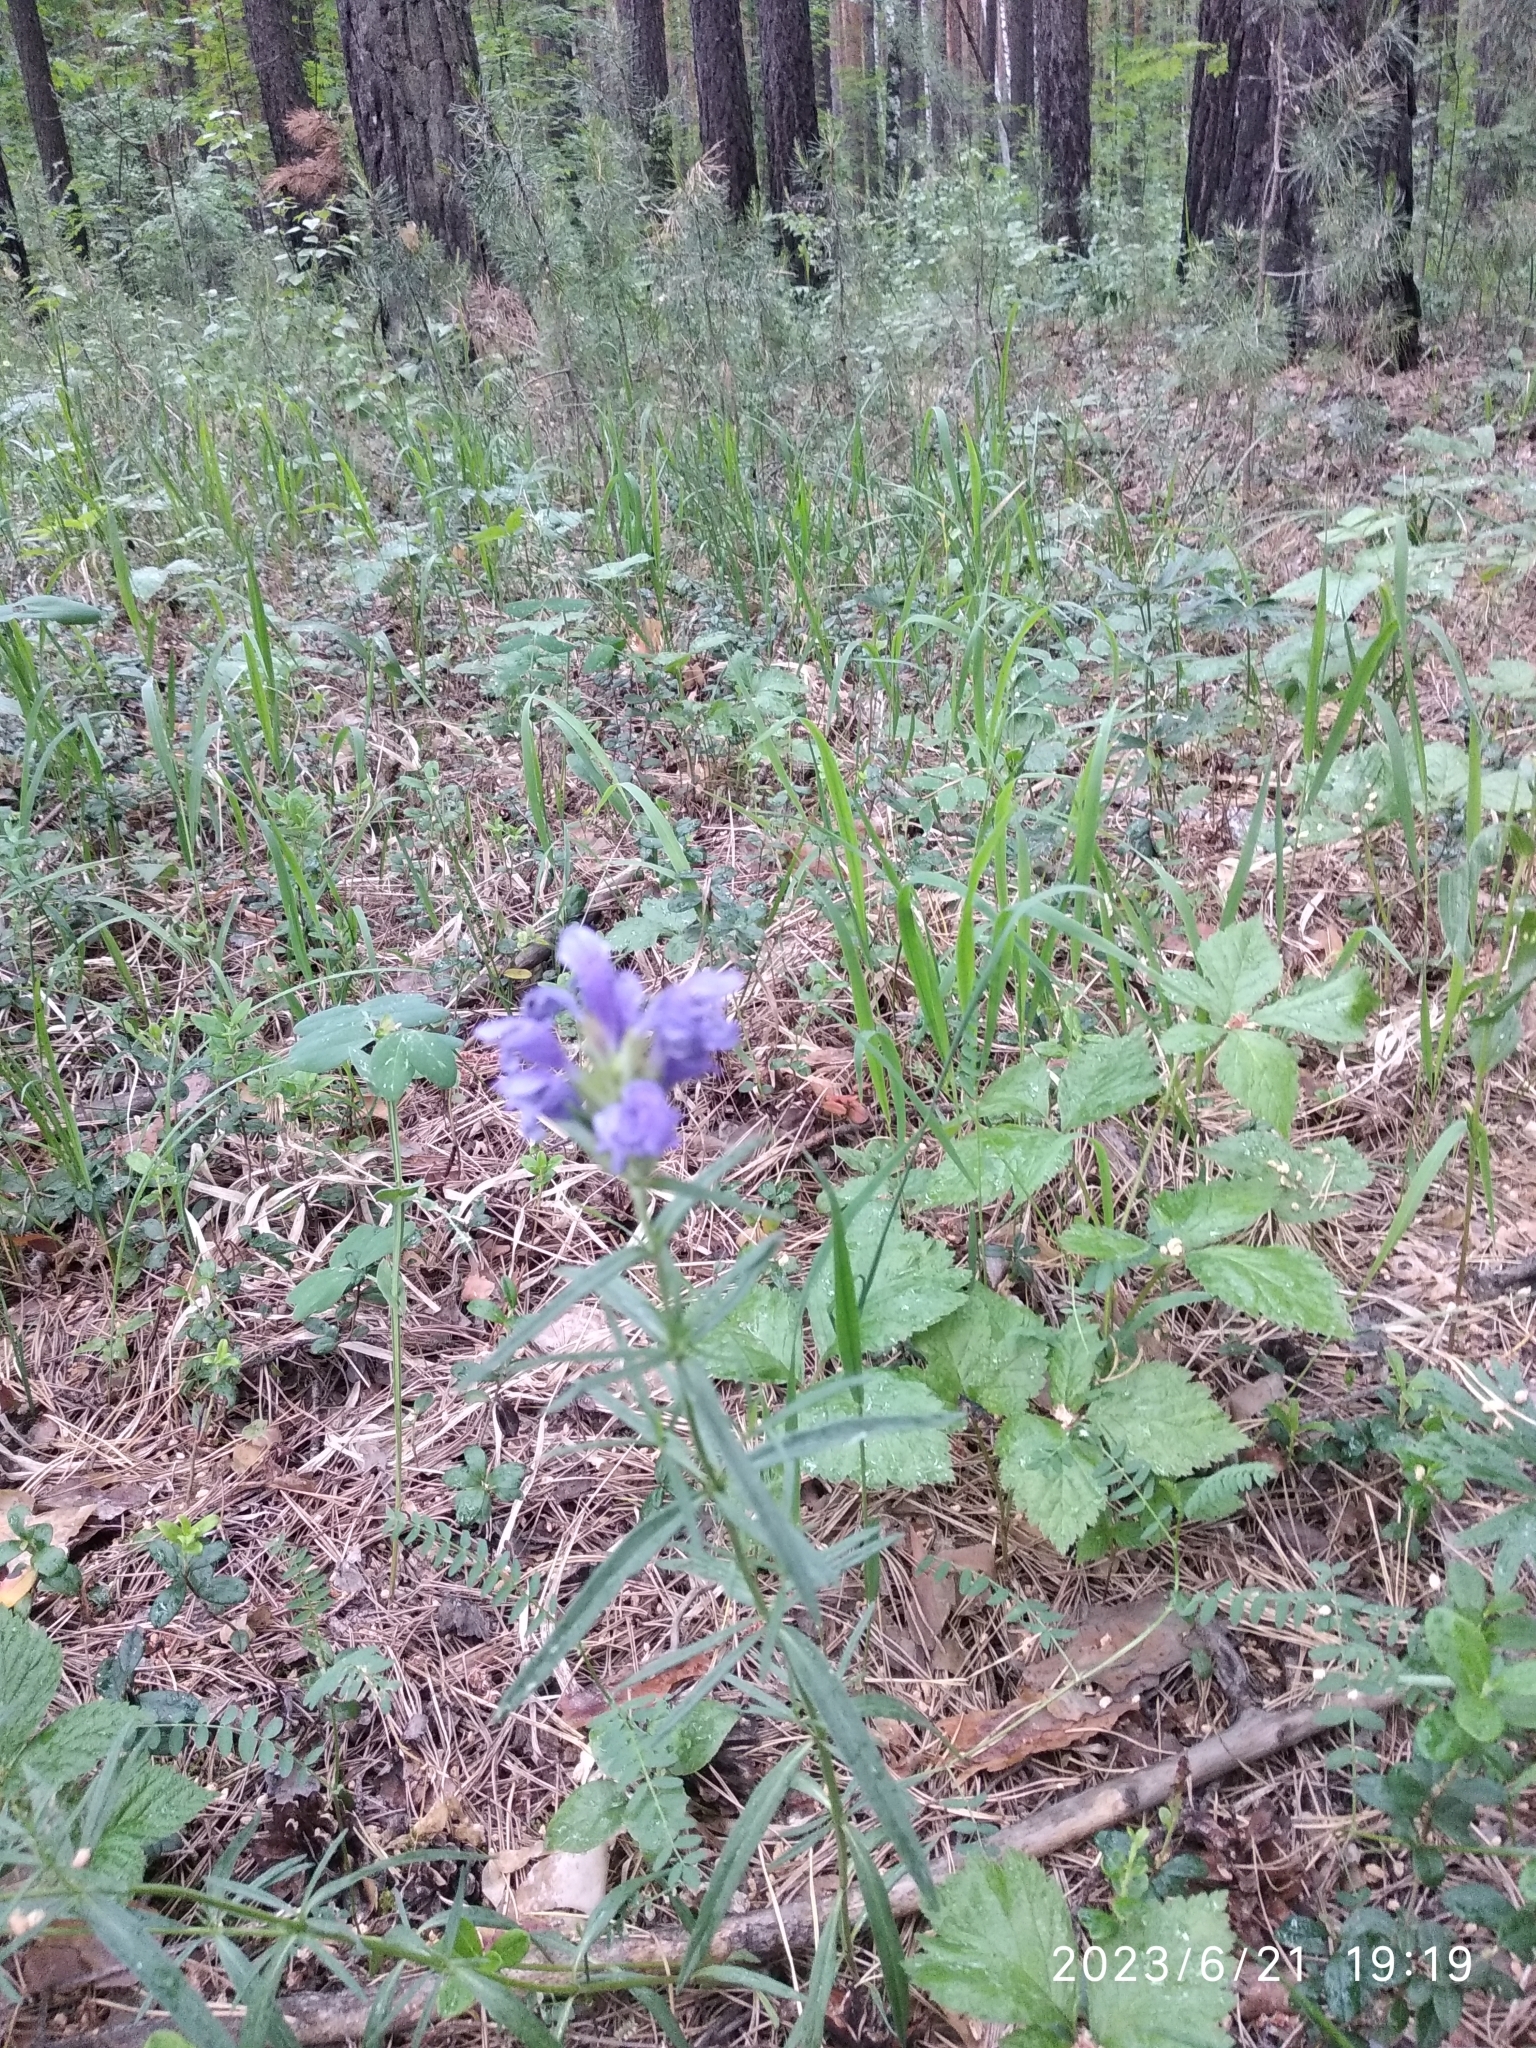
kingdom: Plantae
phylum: Tracheophyta
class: Magnoliopsida
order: Lamiales
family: Lamiaceae
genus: Dracocephalum
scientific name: Dracocephalum ruyschiana
